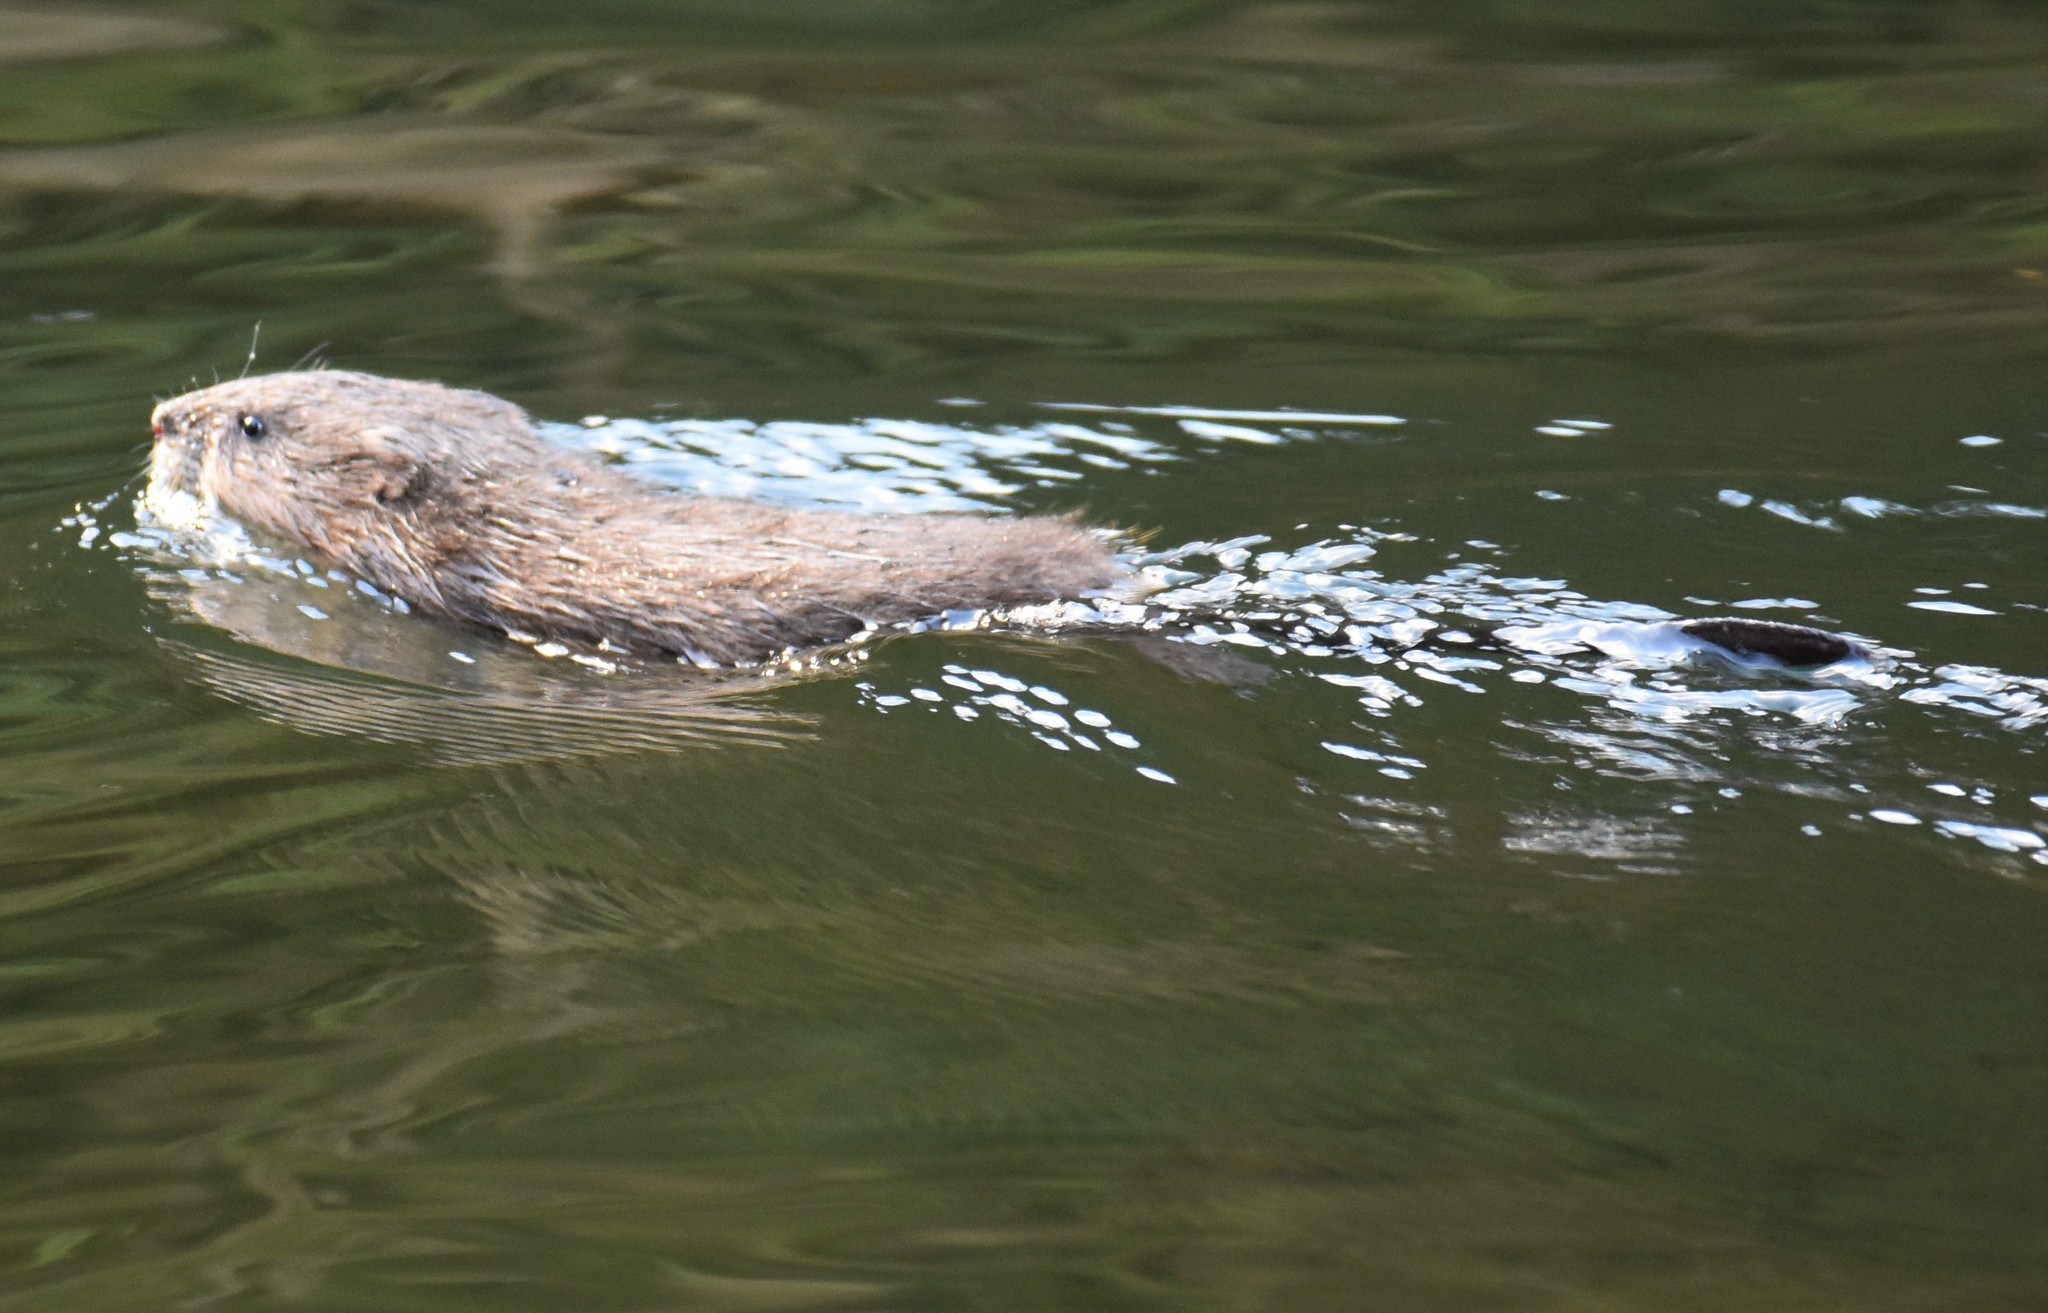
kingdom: Animalia
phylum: Chordata
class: Mammalia
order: Rodentia
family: Cricetidae
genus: Ondatra
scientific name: Ondatra zibethicus
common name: Muskrat
